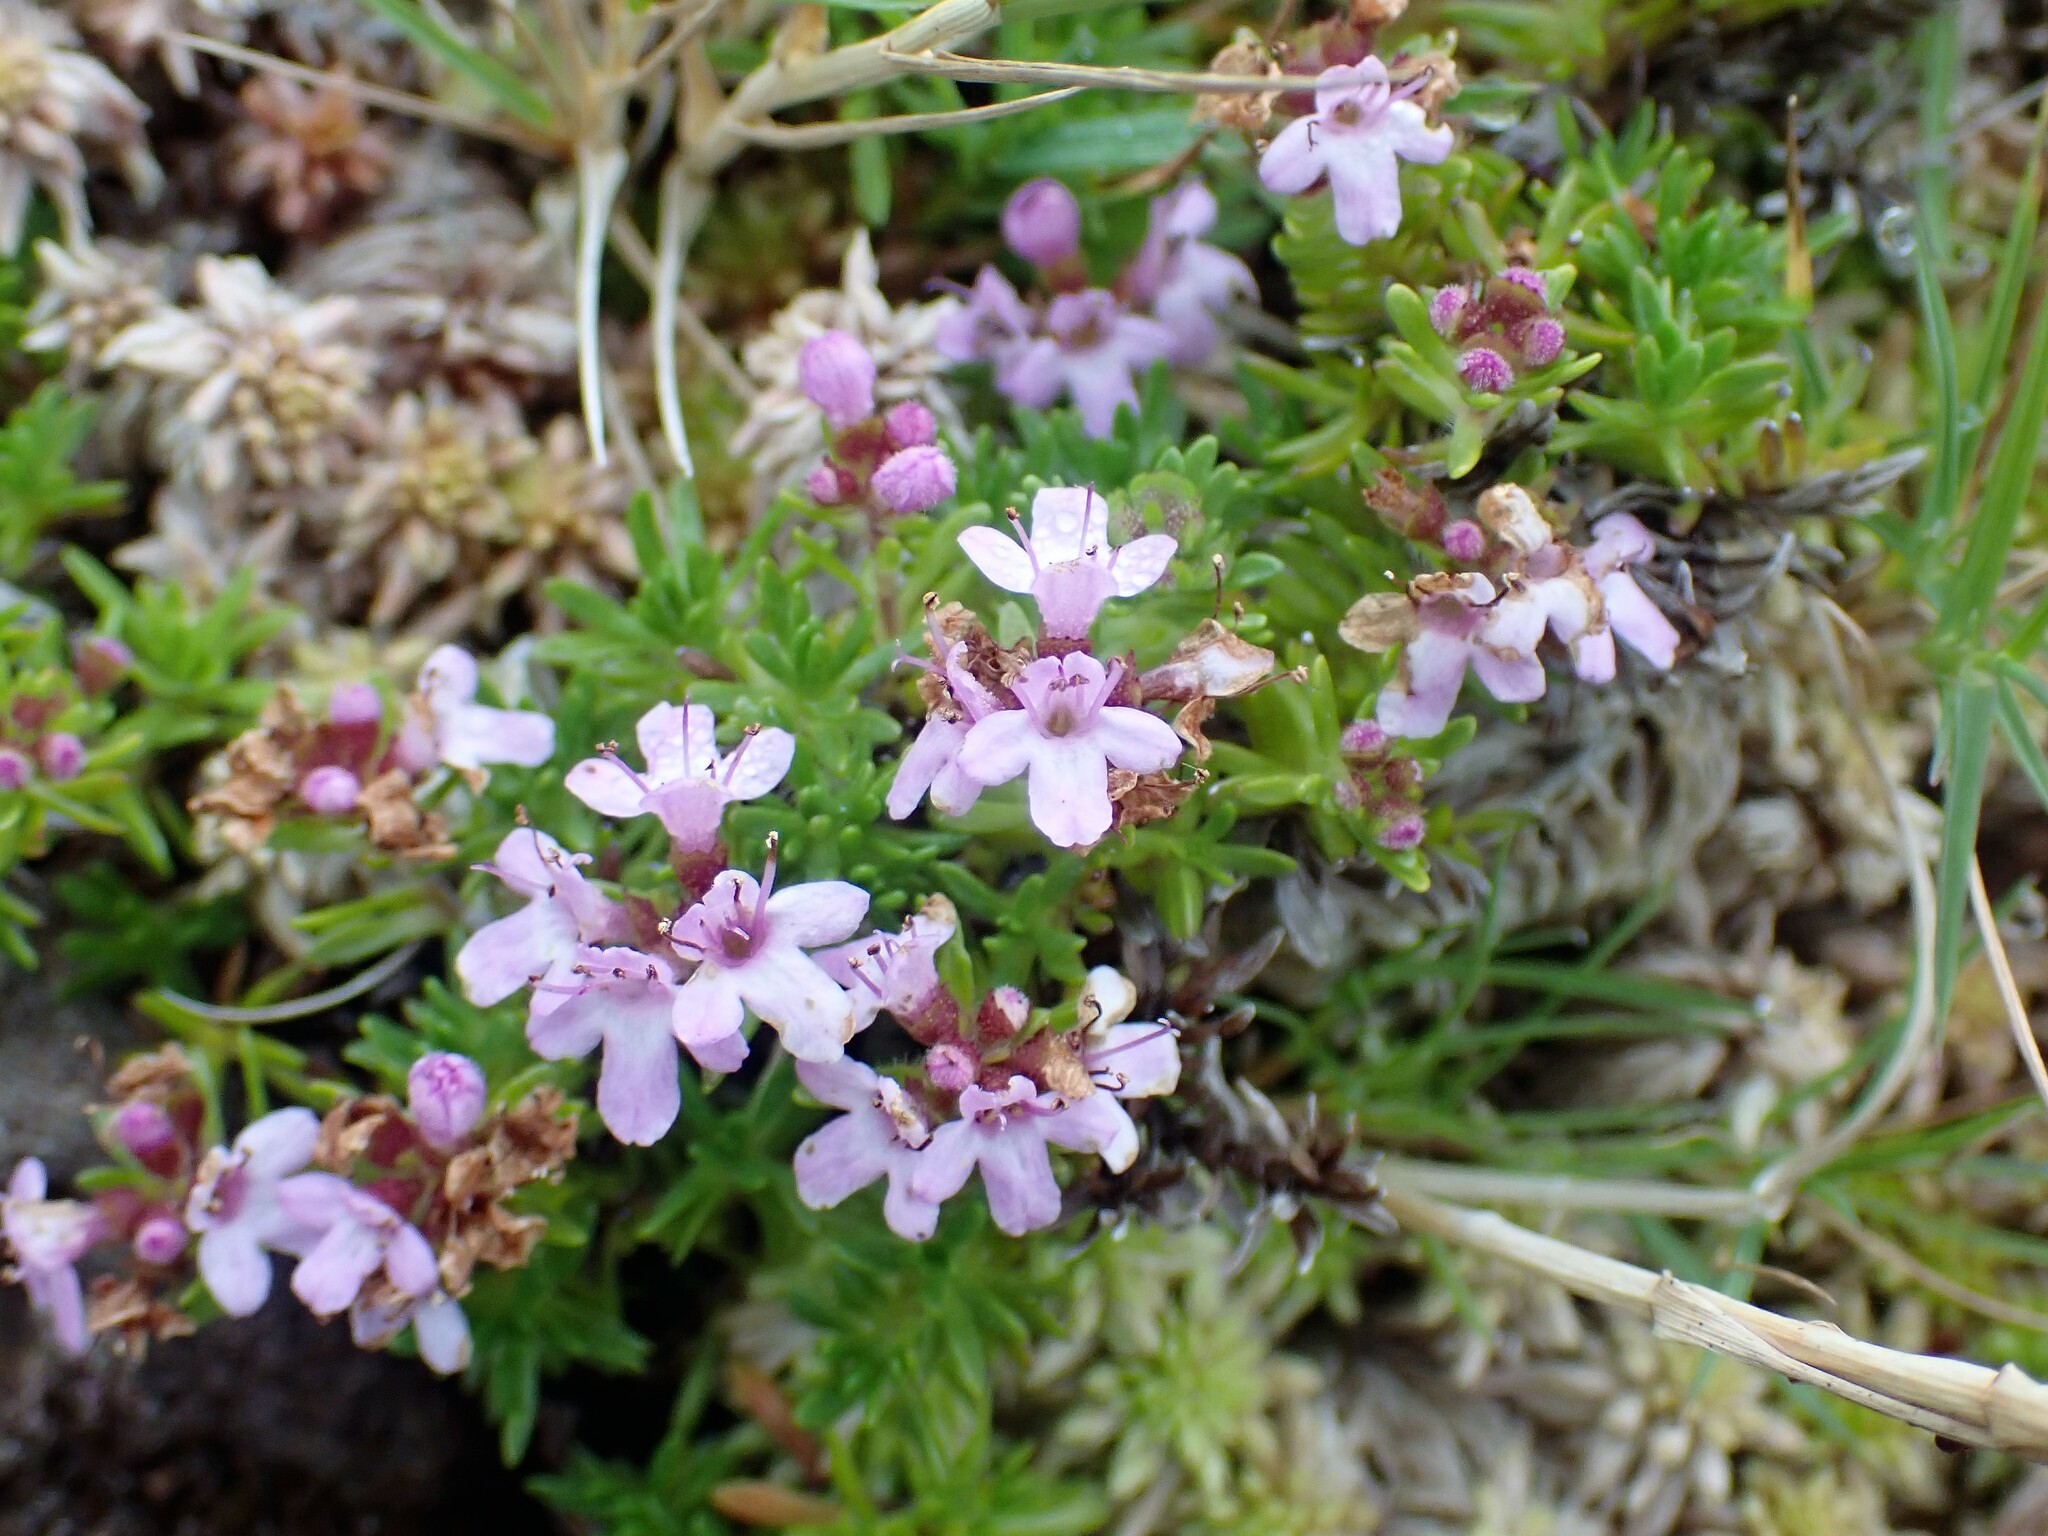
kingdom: Plantae
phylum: Tracheophyta
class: Magnoliopsida
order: Lamiales
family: Lamiaceae
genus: Thymus
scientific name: Thymus caespititius
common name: Azores thyme
